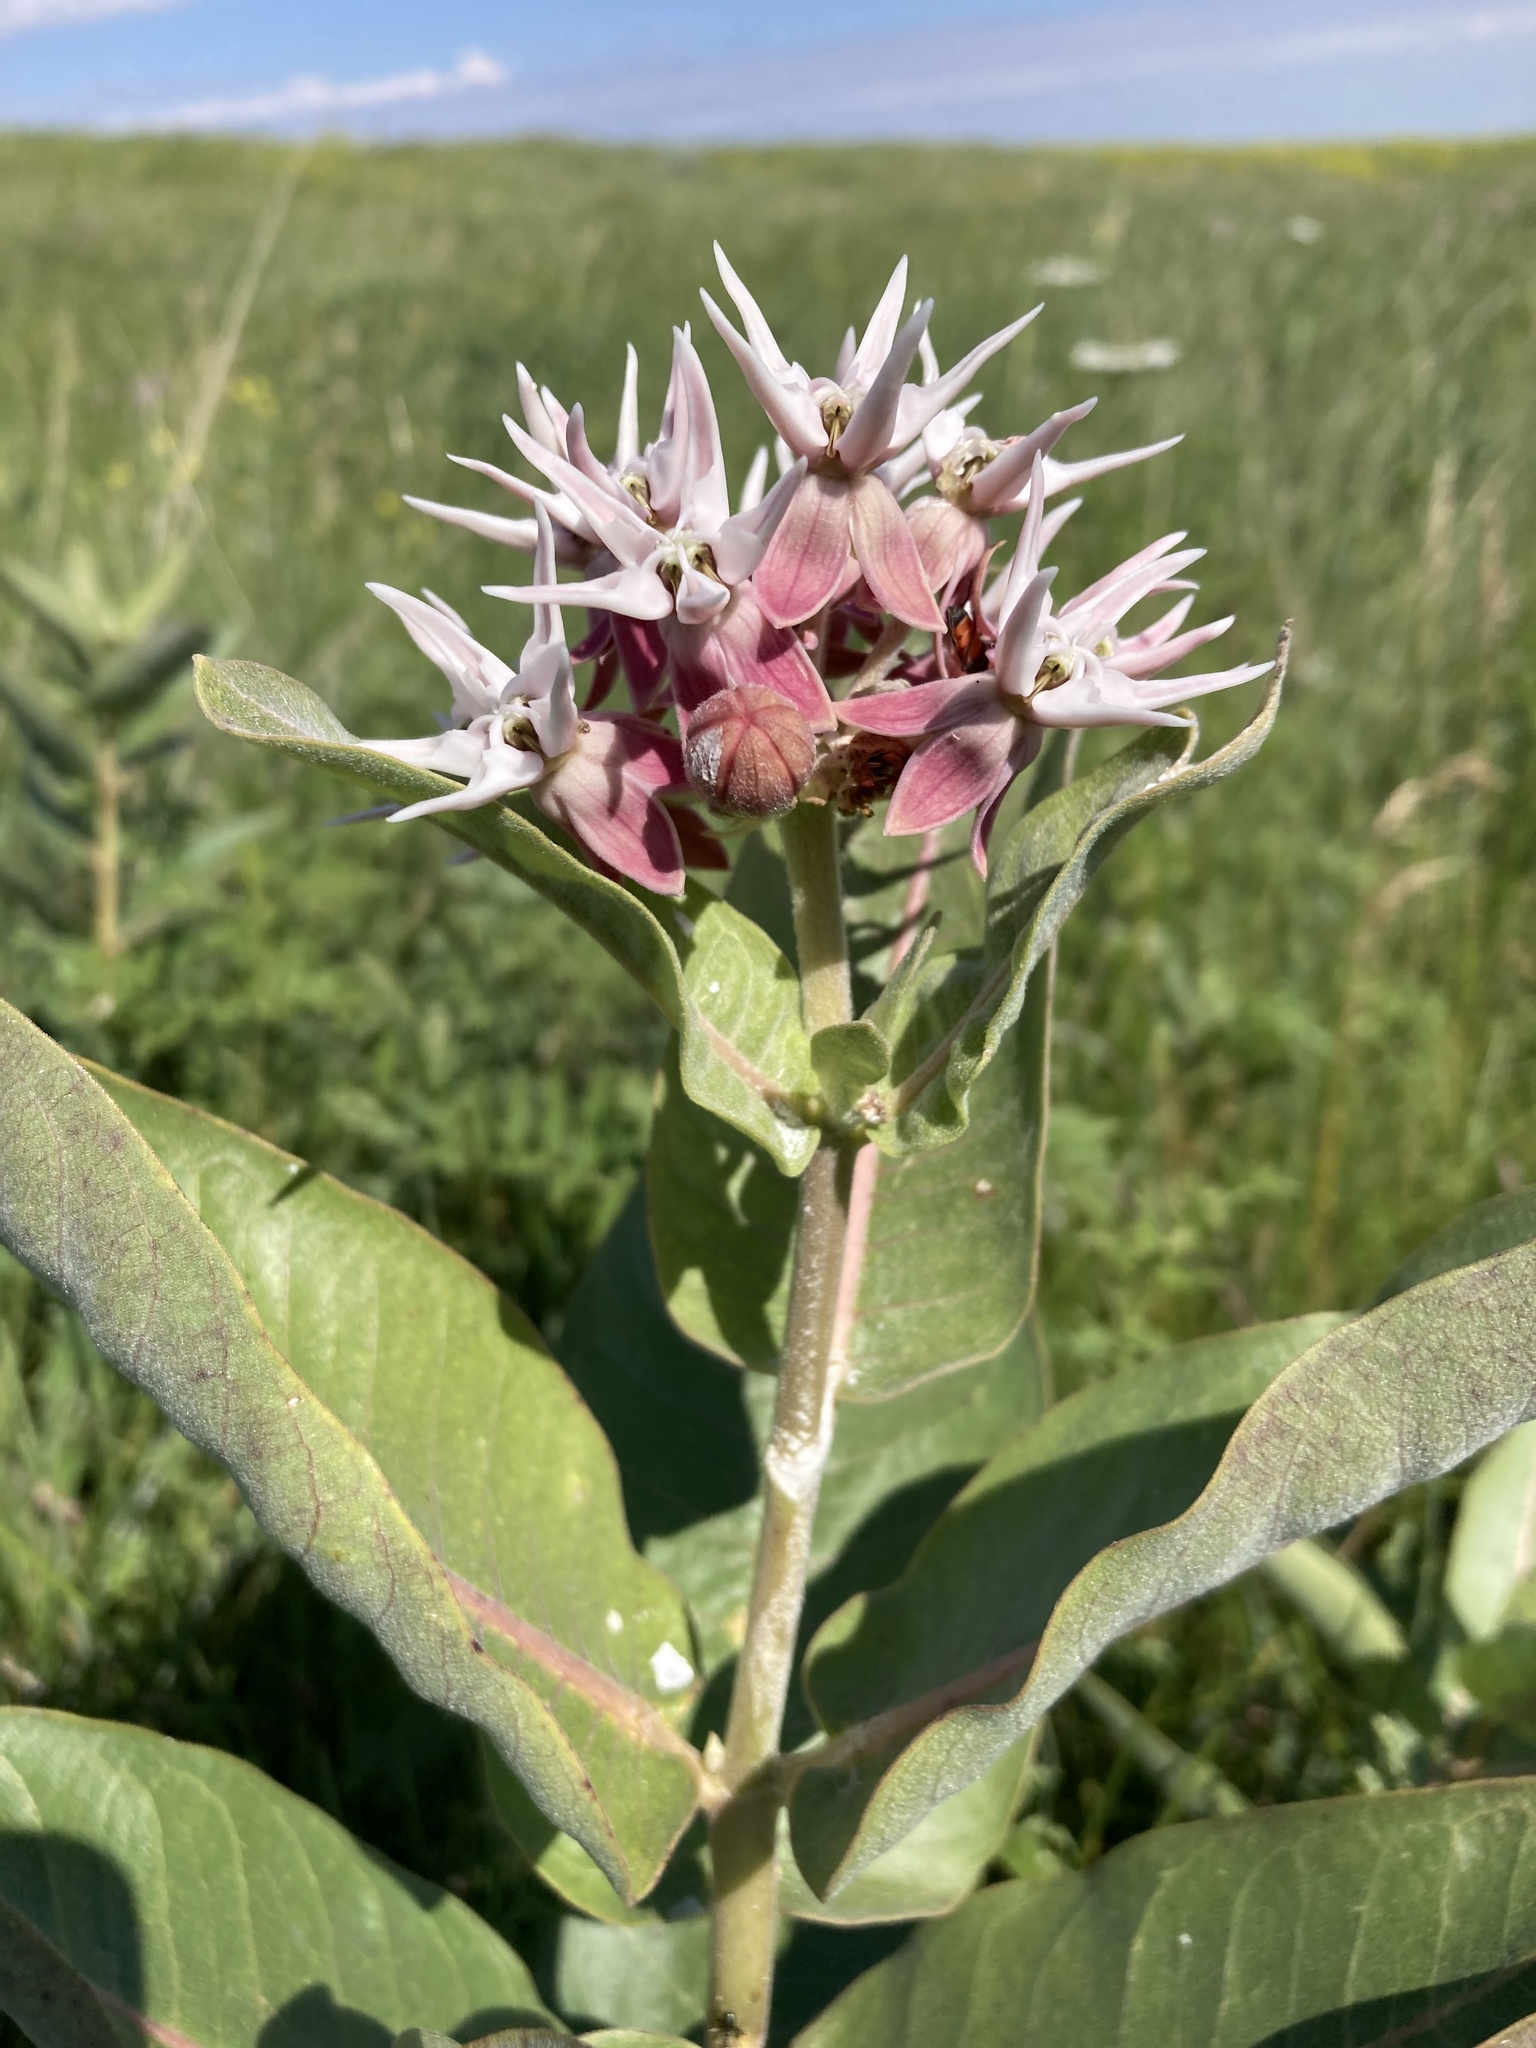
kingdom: Plantae
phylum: Tracheophyta
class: Magnoliopsida
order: Gentianales
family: Apocynaceae
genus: Asclepias
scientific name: Asclepias speciosa
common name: Showy milkweed
